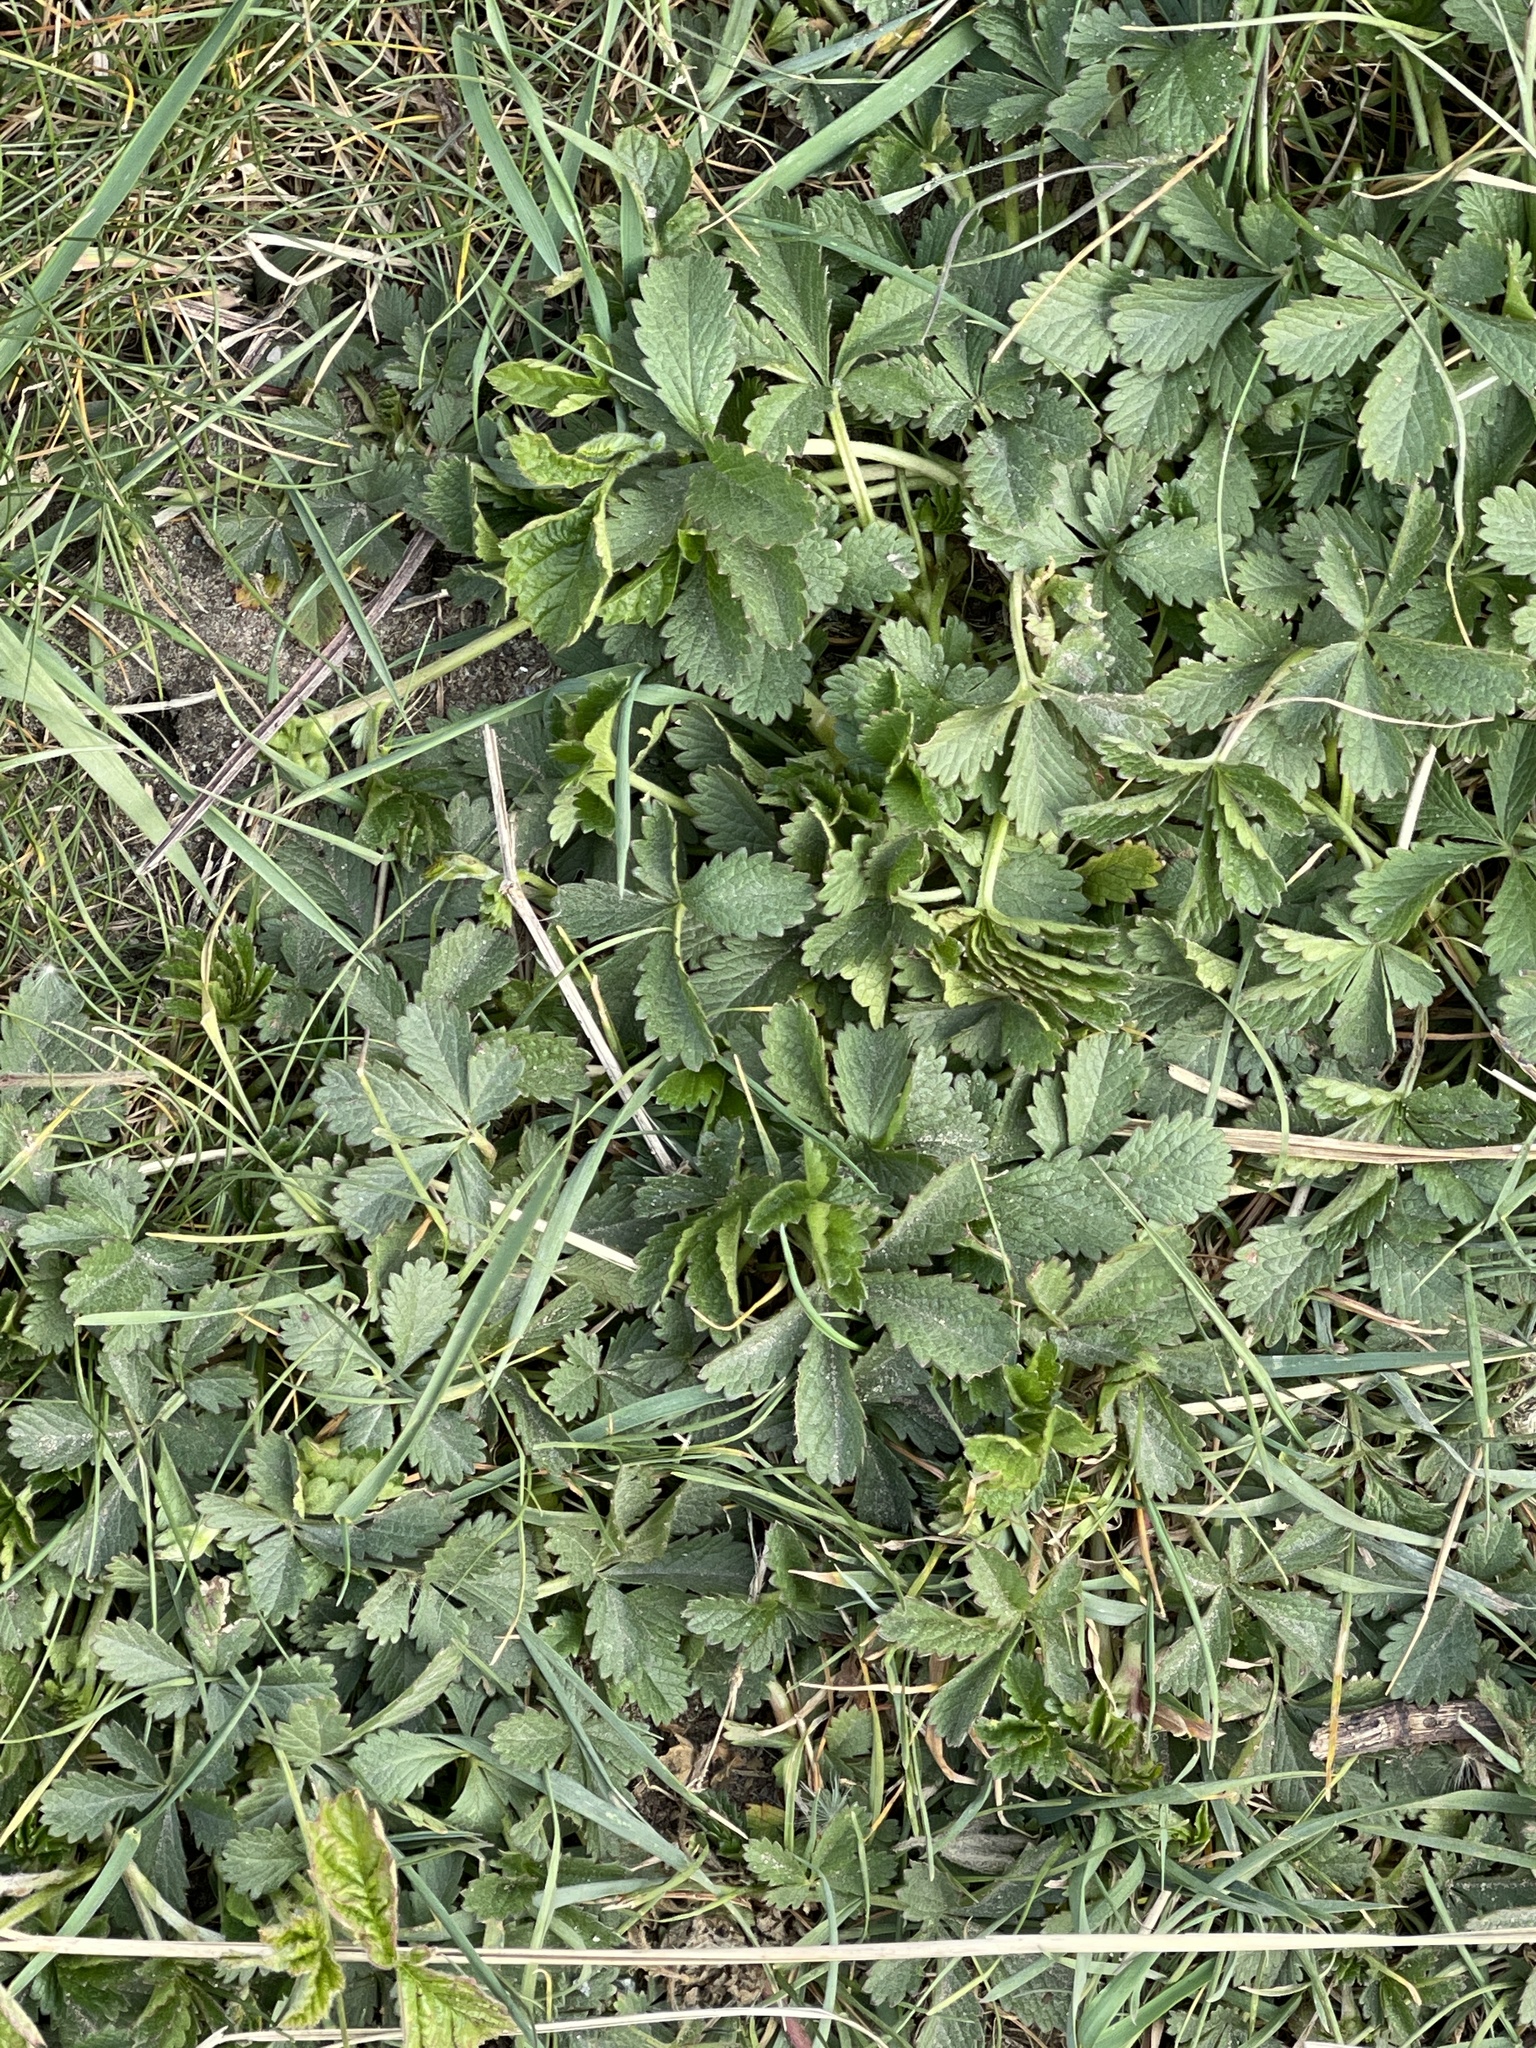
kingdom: Plantae
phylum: Tracheophyta
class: Magnoliopsida
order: Rosales
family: Rosaceae
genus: Potentilla
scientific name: Potentilla reptans
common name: Creeping cinquefoil
